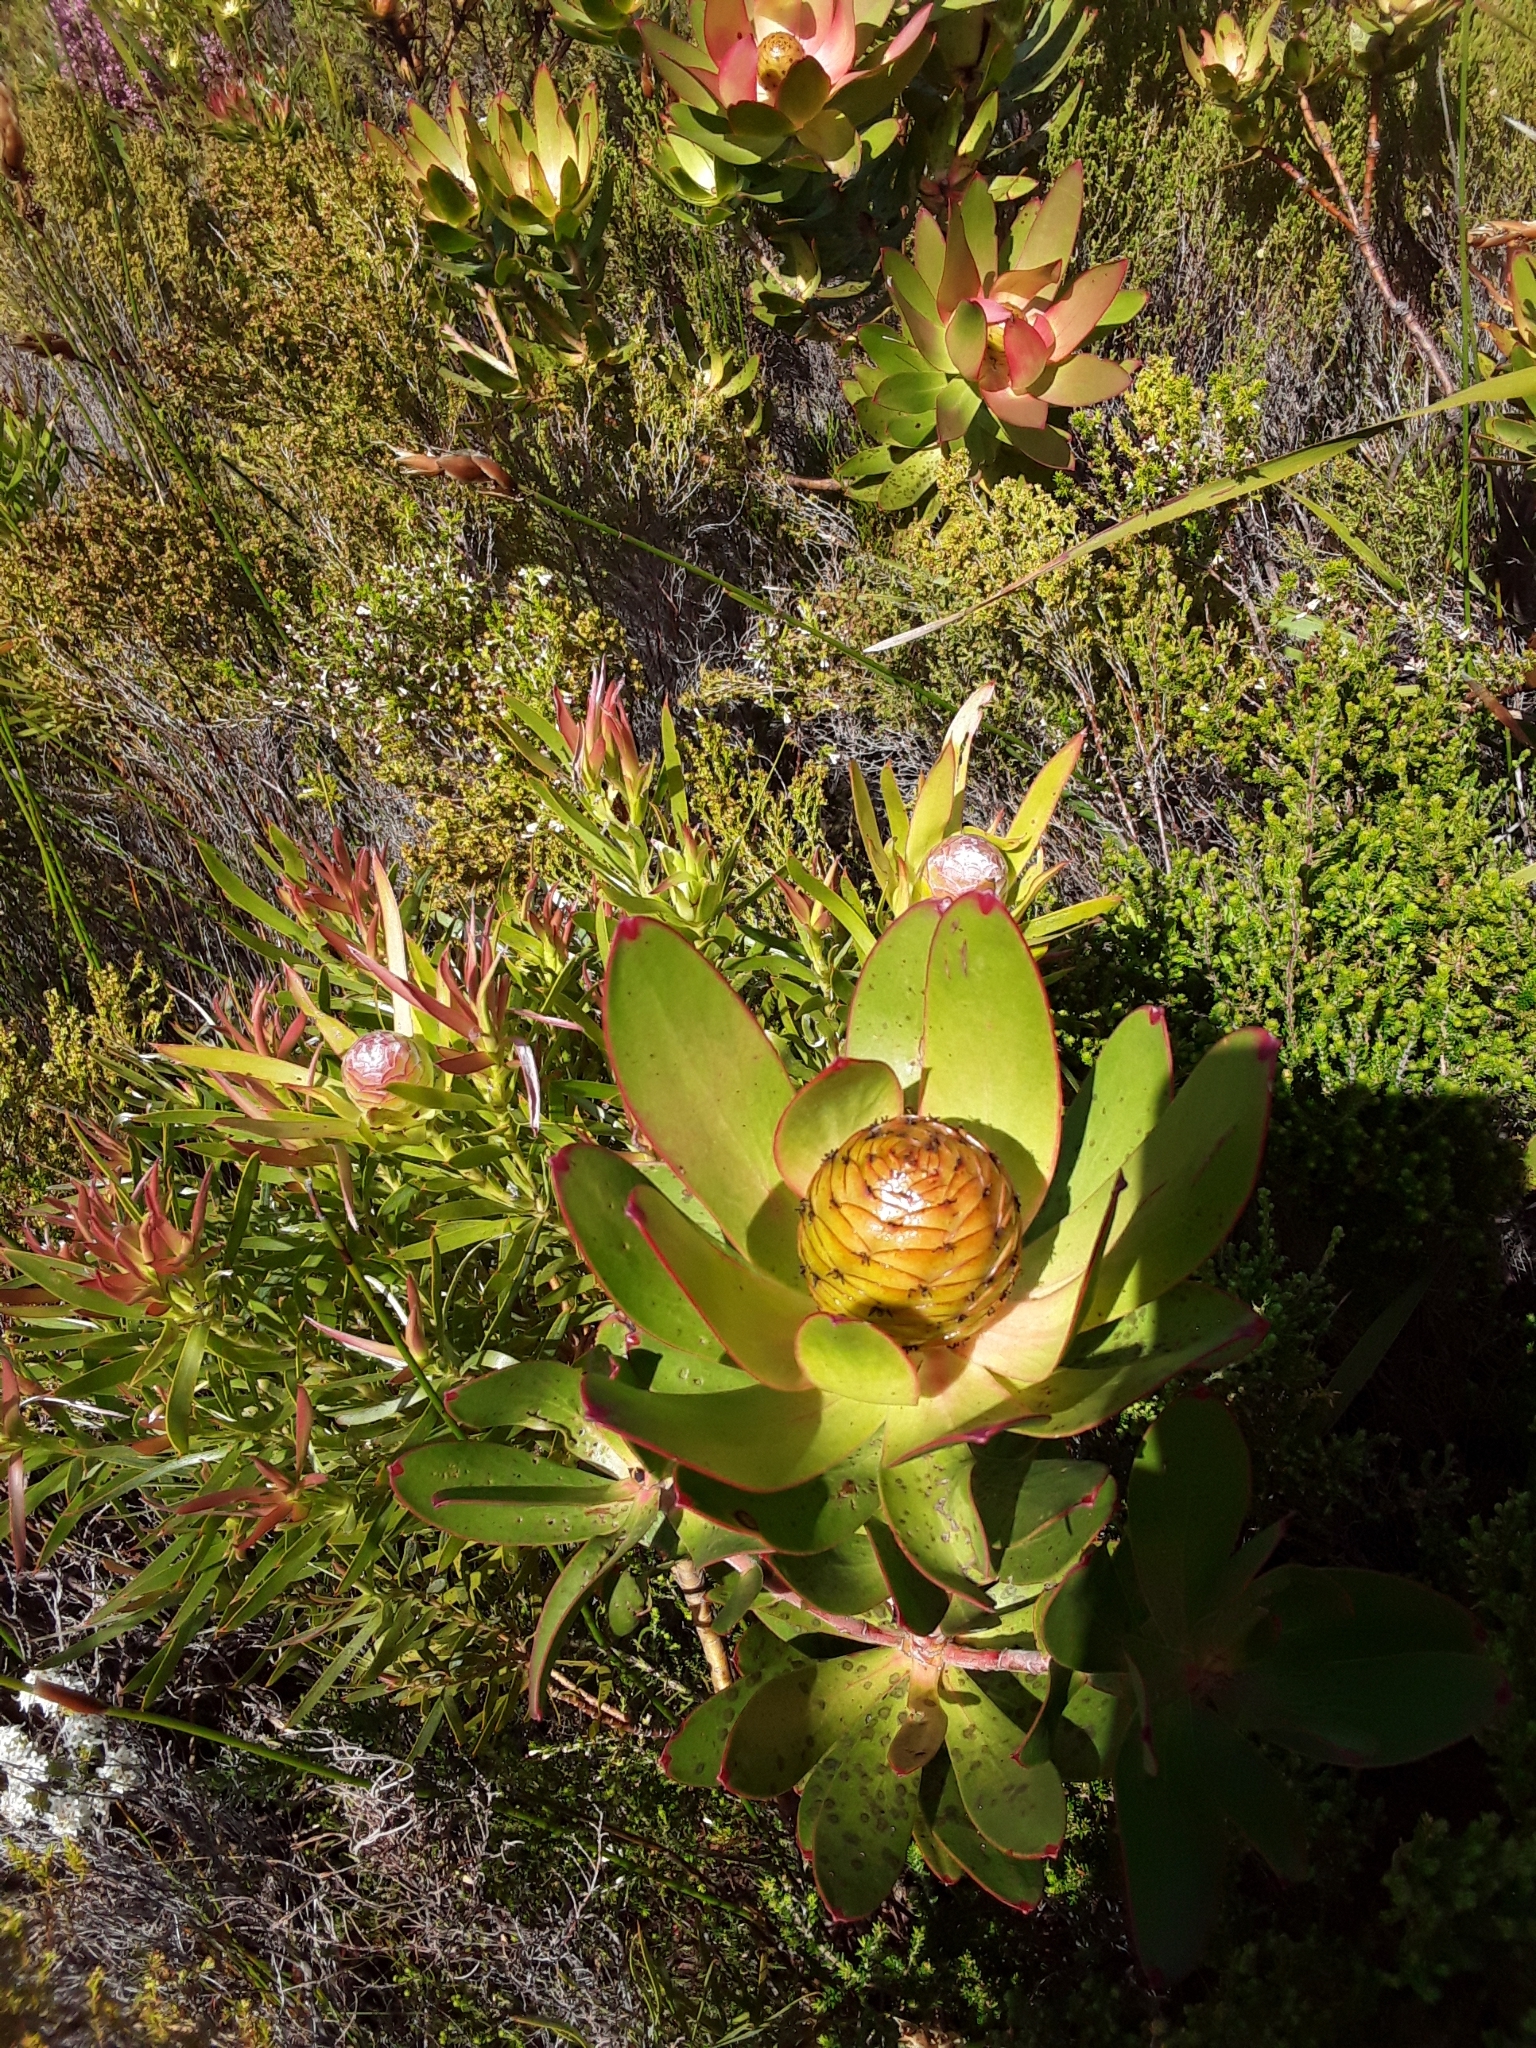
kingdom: Plantae
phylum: Tracheophyta
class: Magnoliopsida
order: Proteales
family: Proteaceae
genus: Leucadendron
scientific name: Leucadendron gandogeri
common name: Broad-leaf conebush
